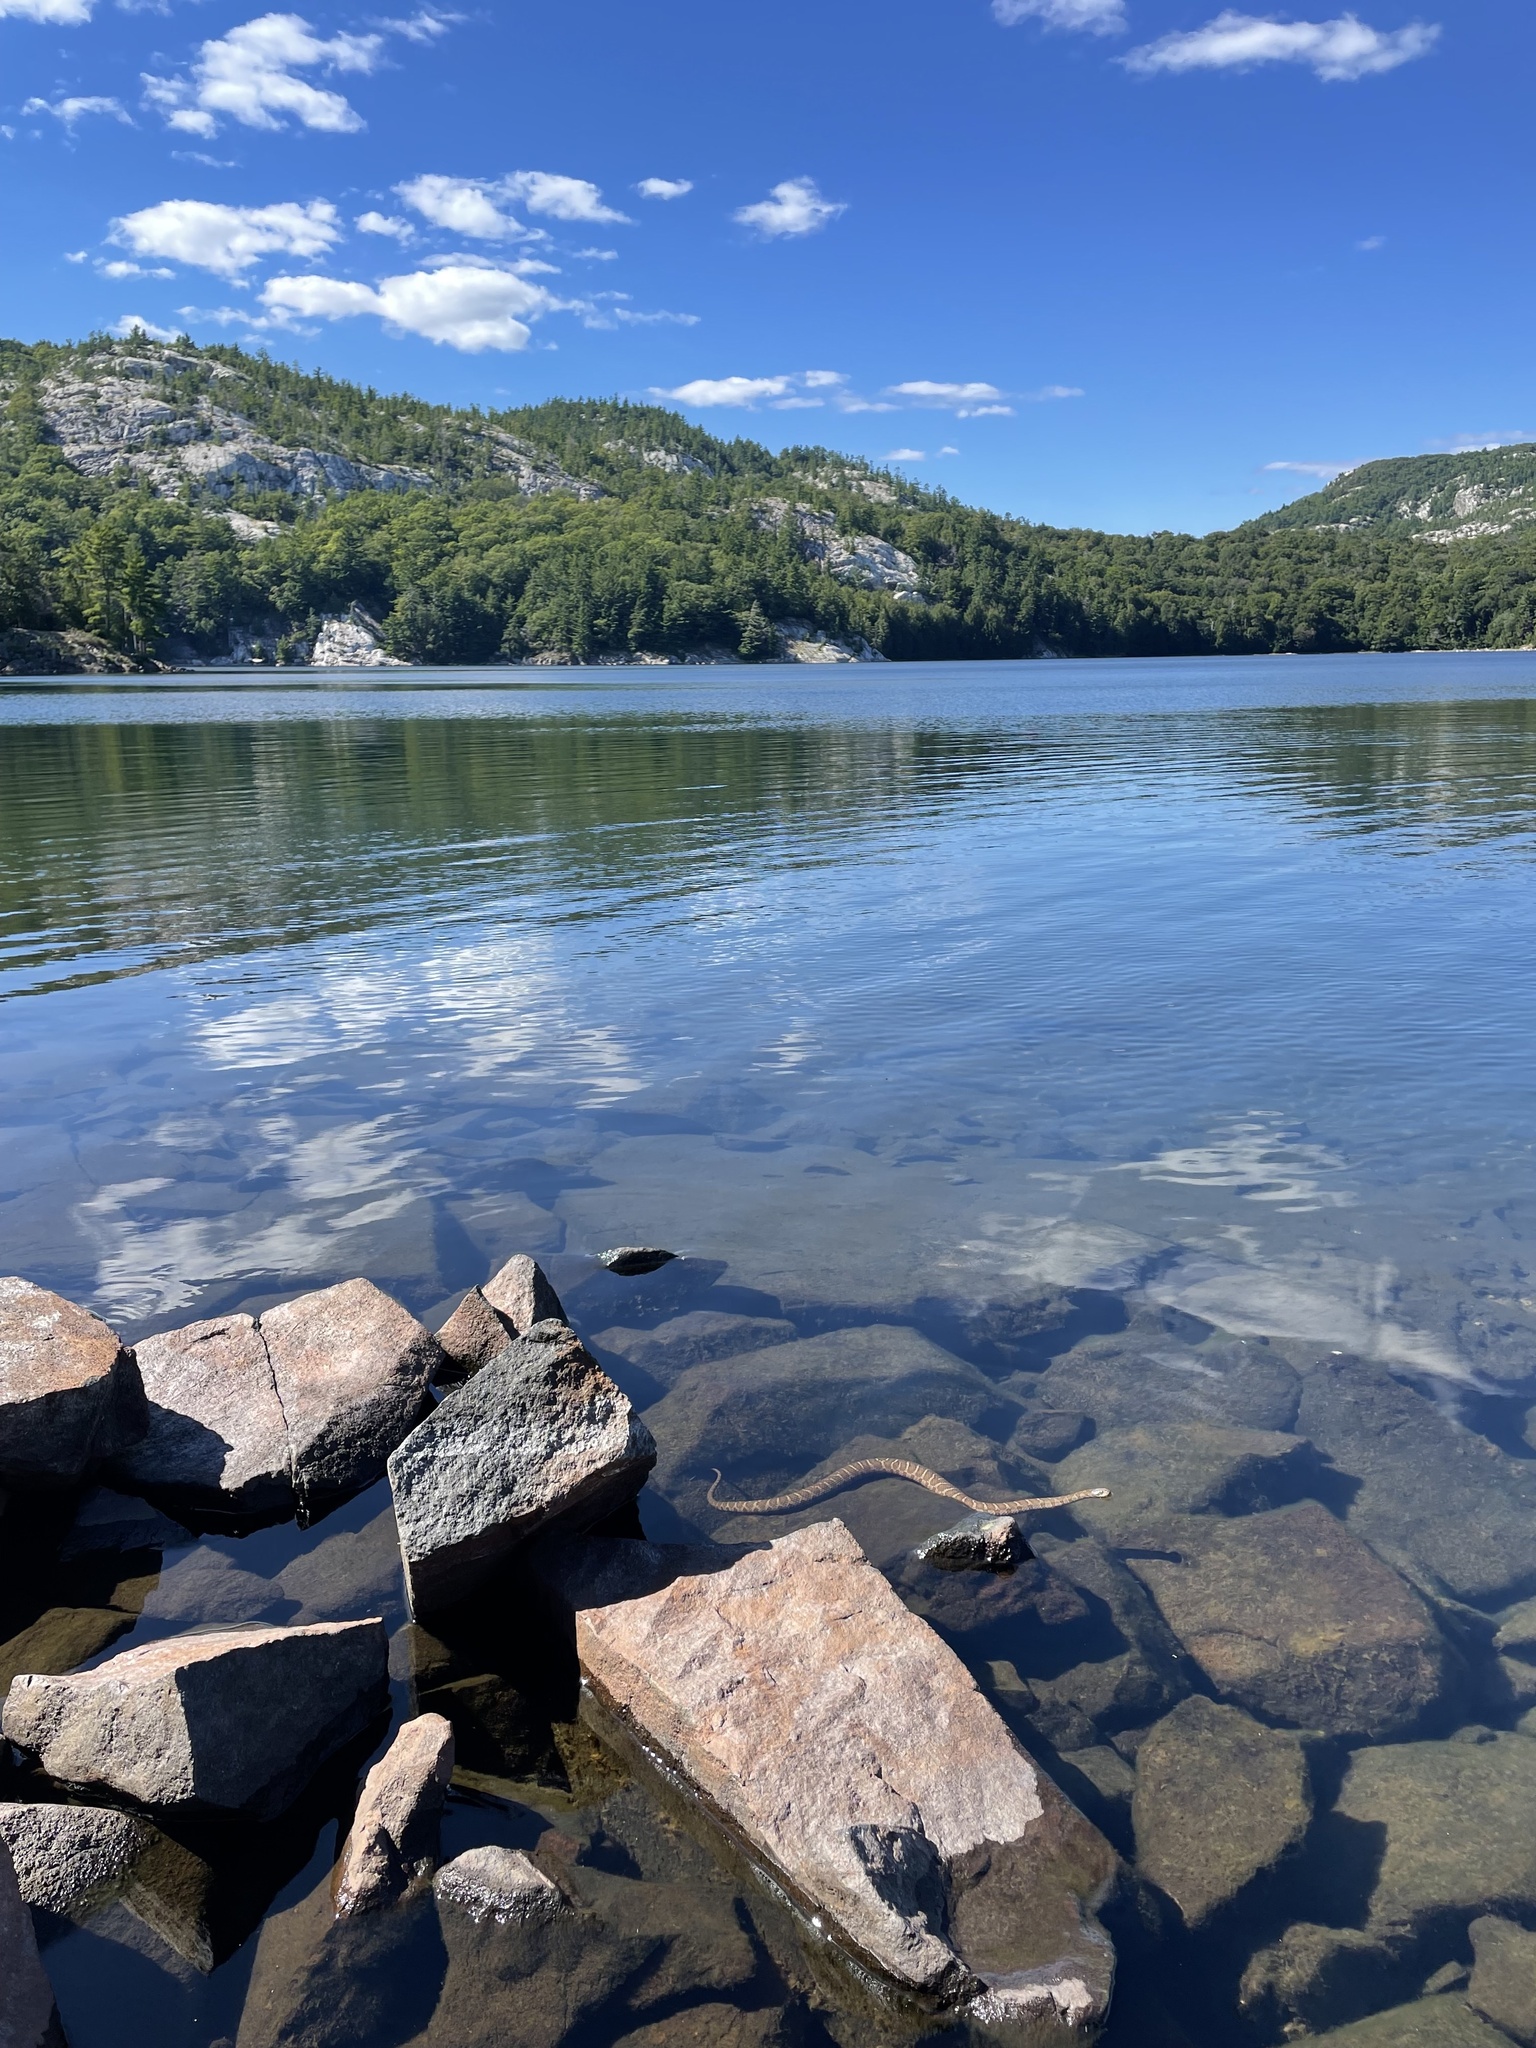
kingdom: Animalia
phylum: Chordata
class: Squamata
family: Colubridae
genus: Nerodia
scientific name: Nerodia sipedon
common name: Northern water snake
